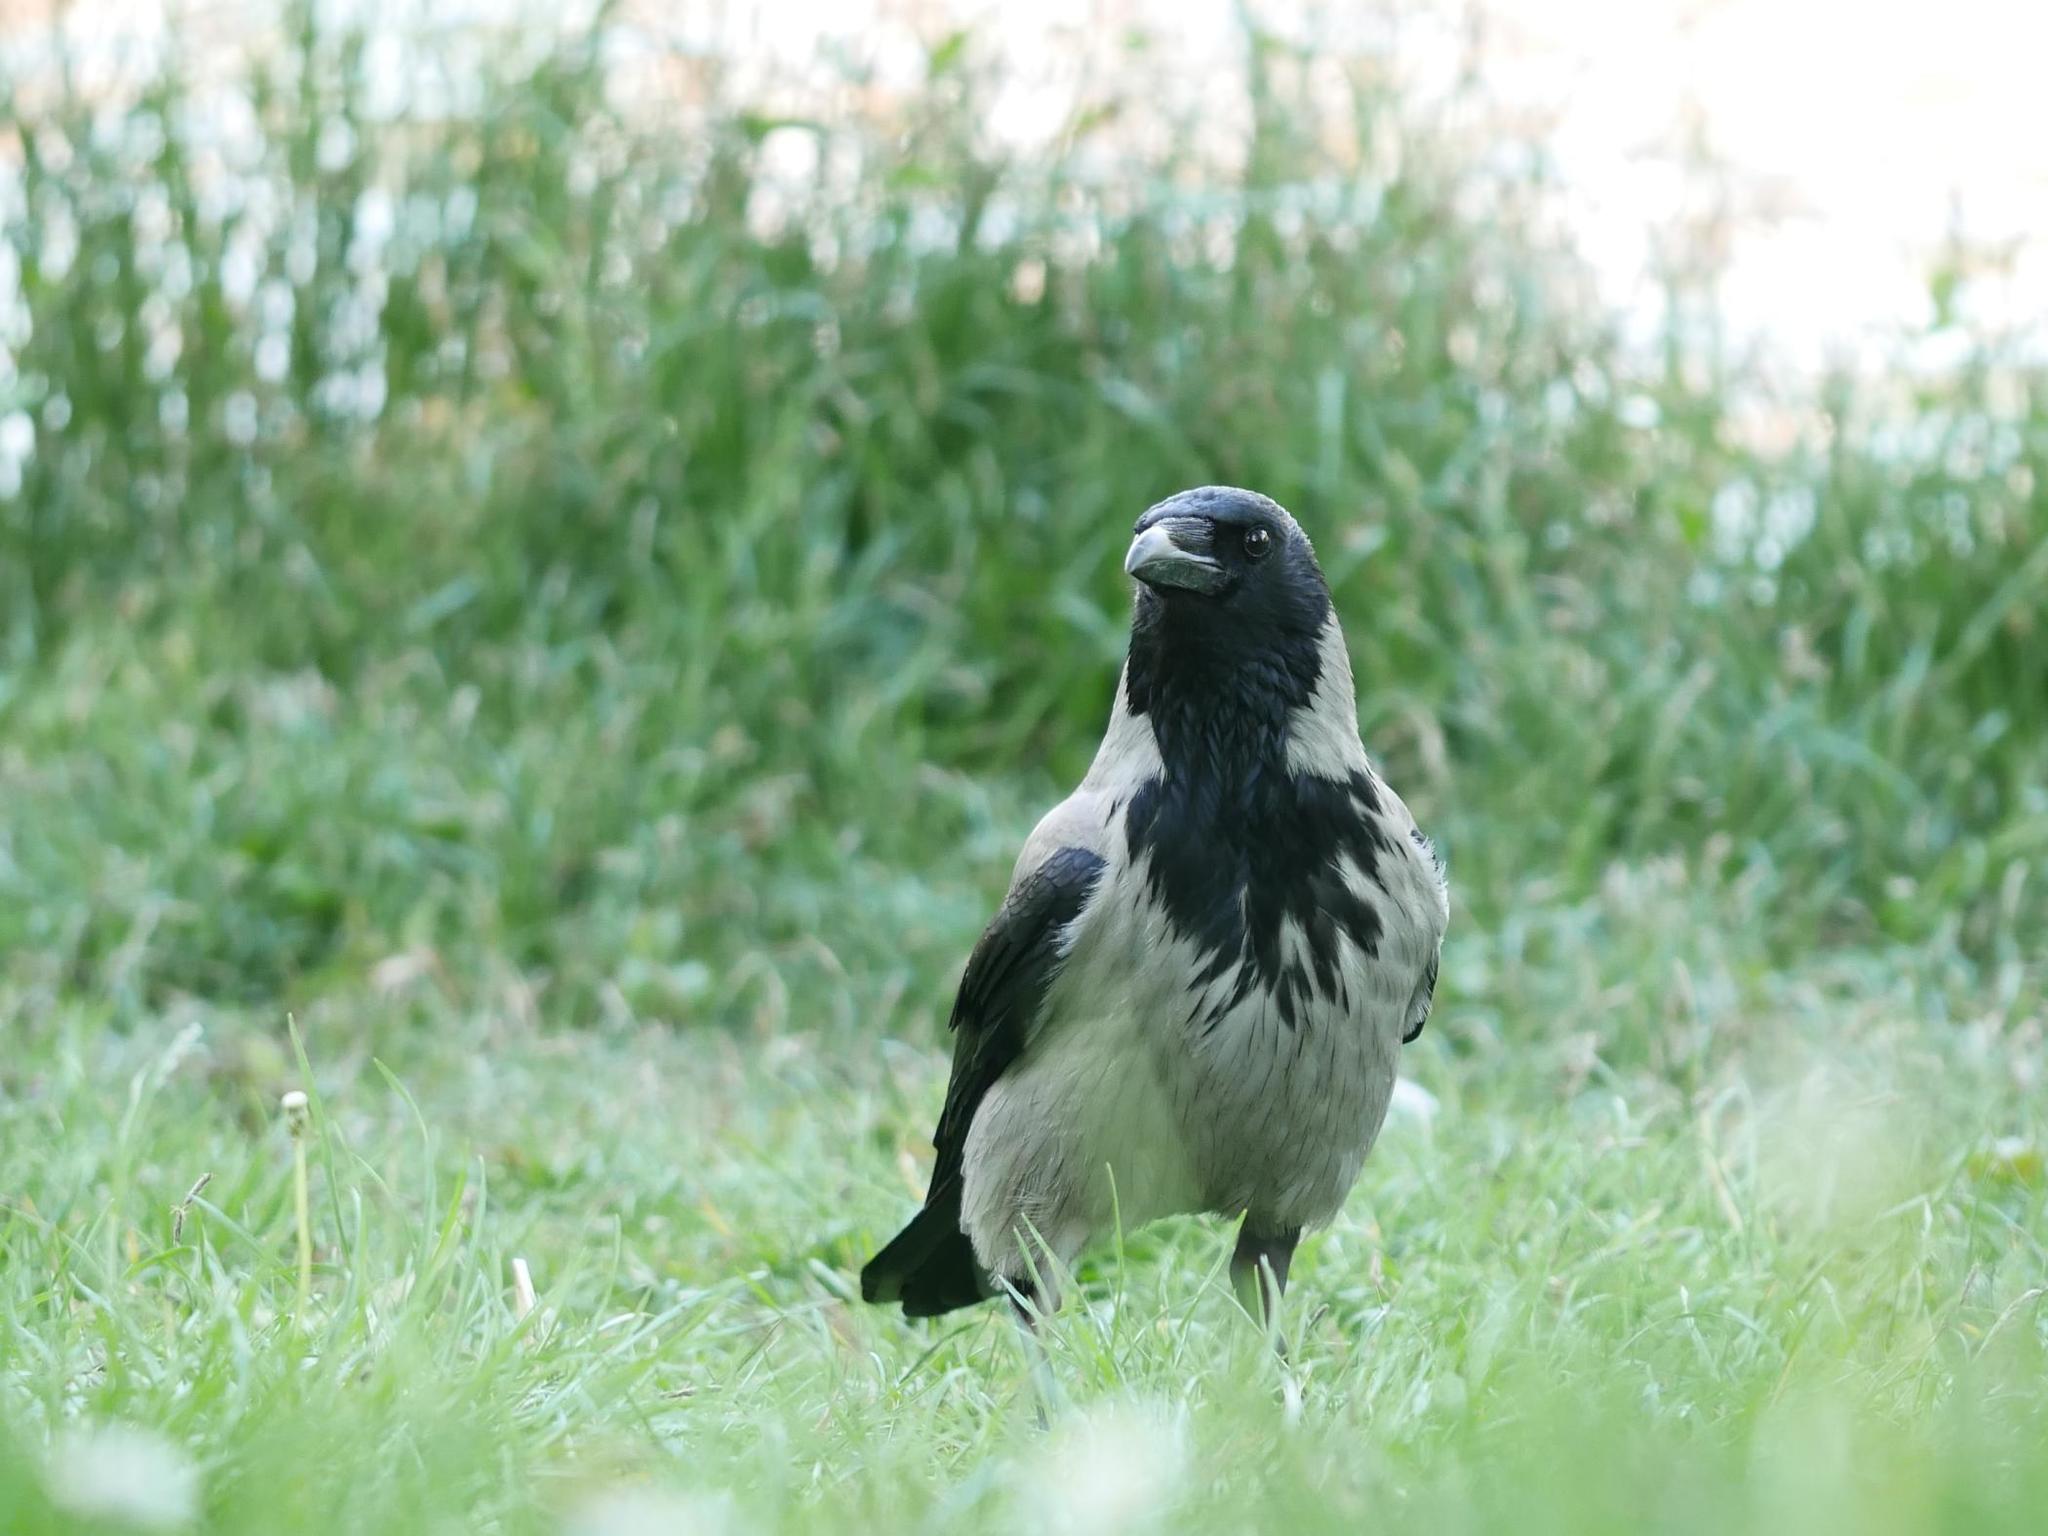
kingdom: Animalia
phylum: Chordata
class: Aves
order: Passeriformes
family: Corvidae
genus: Corvus
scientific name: Corvus cornix
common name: Hooded crow
